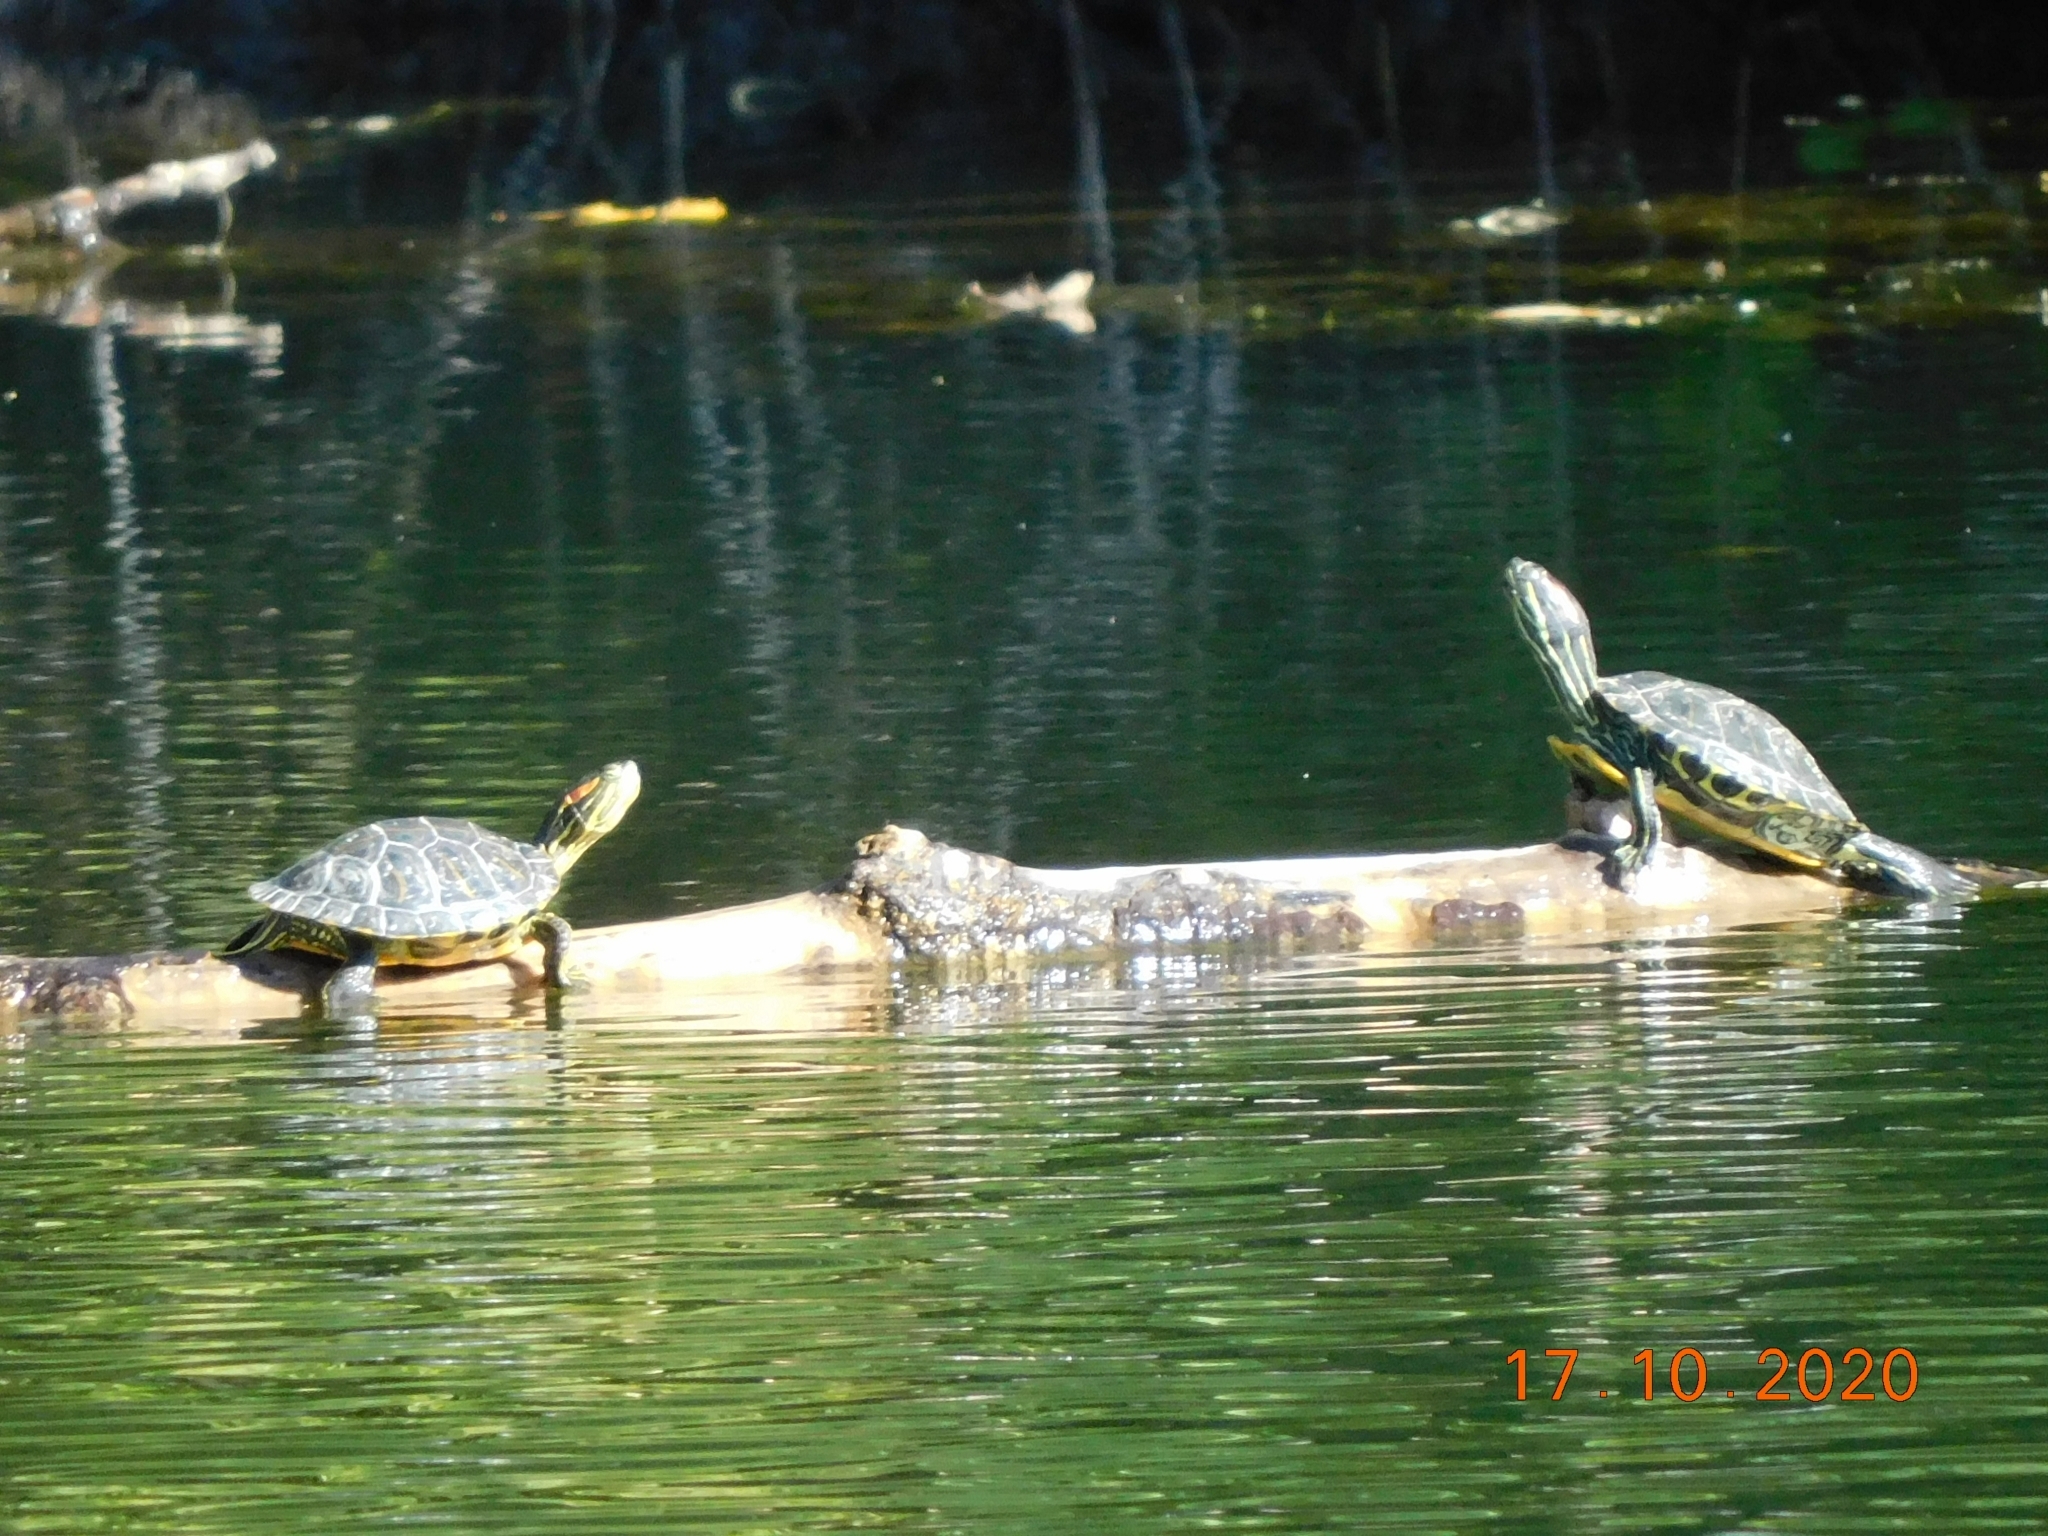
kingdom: Animalia
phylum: Chordata
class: Testudines
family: Emydidae
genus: Trachemys
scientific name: Trachemys scripta
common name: Slider
